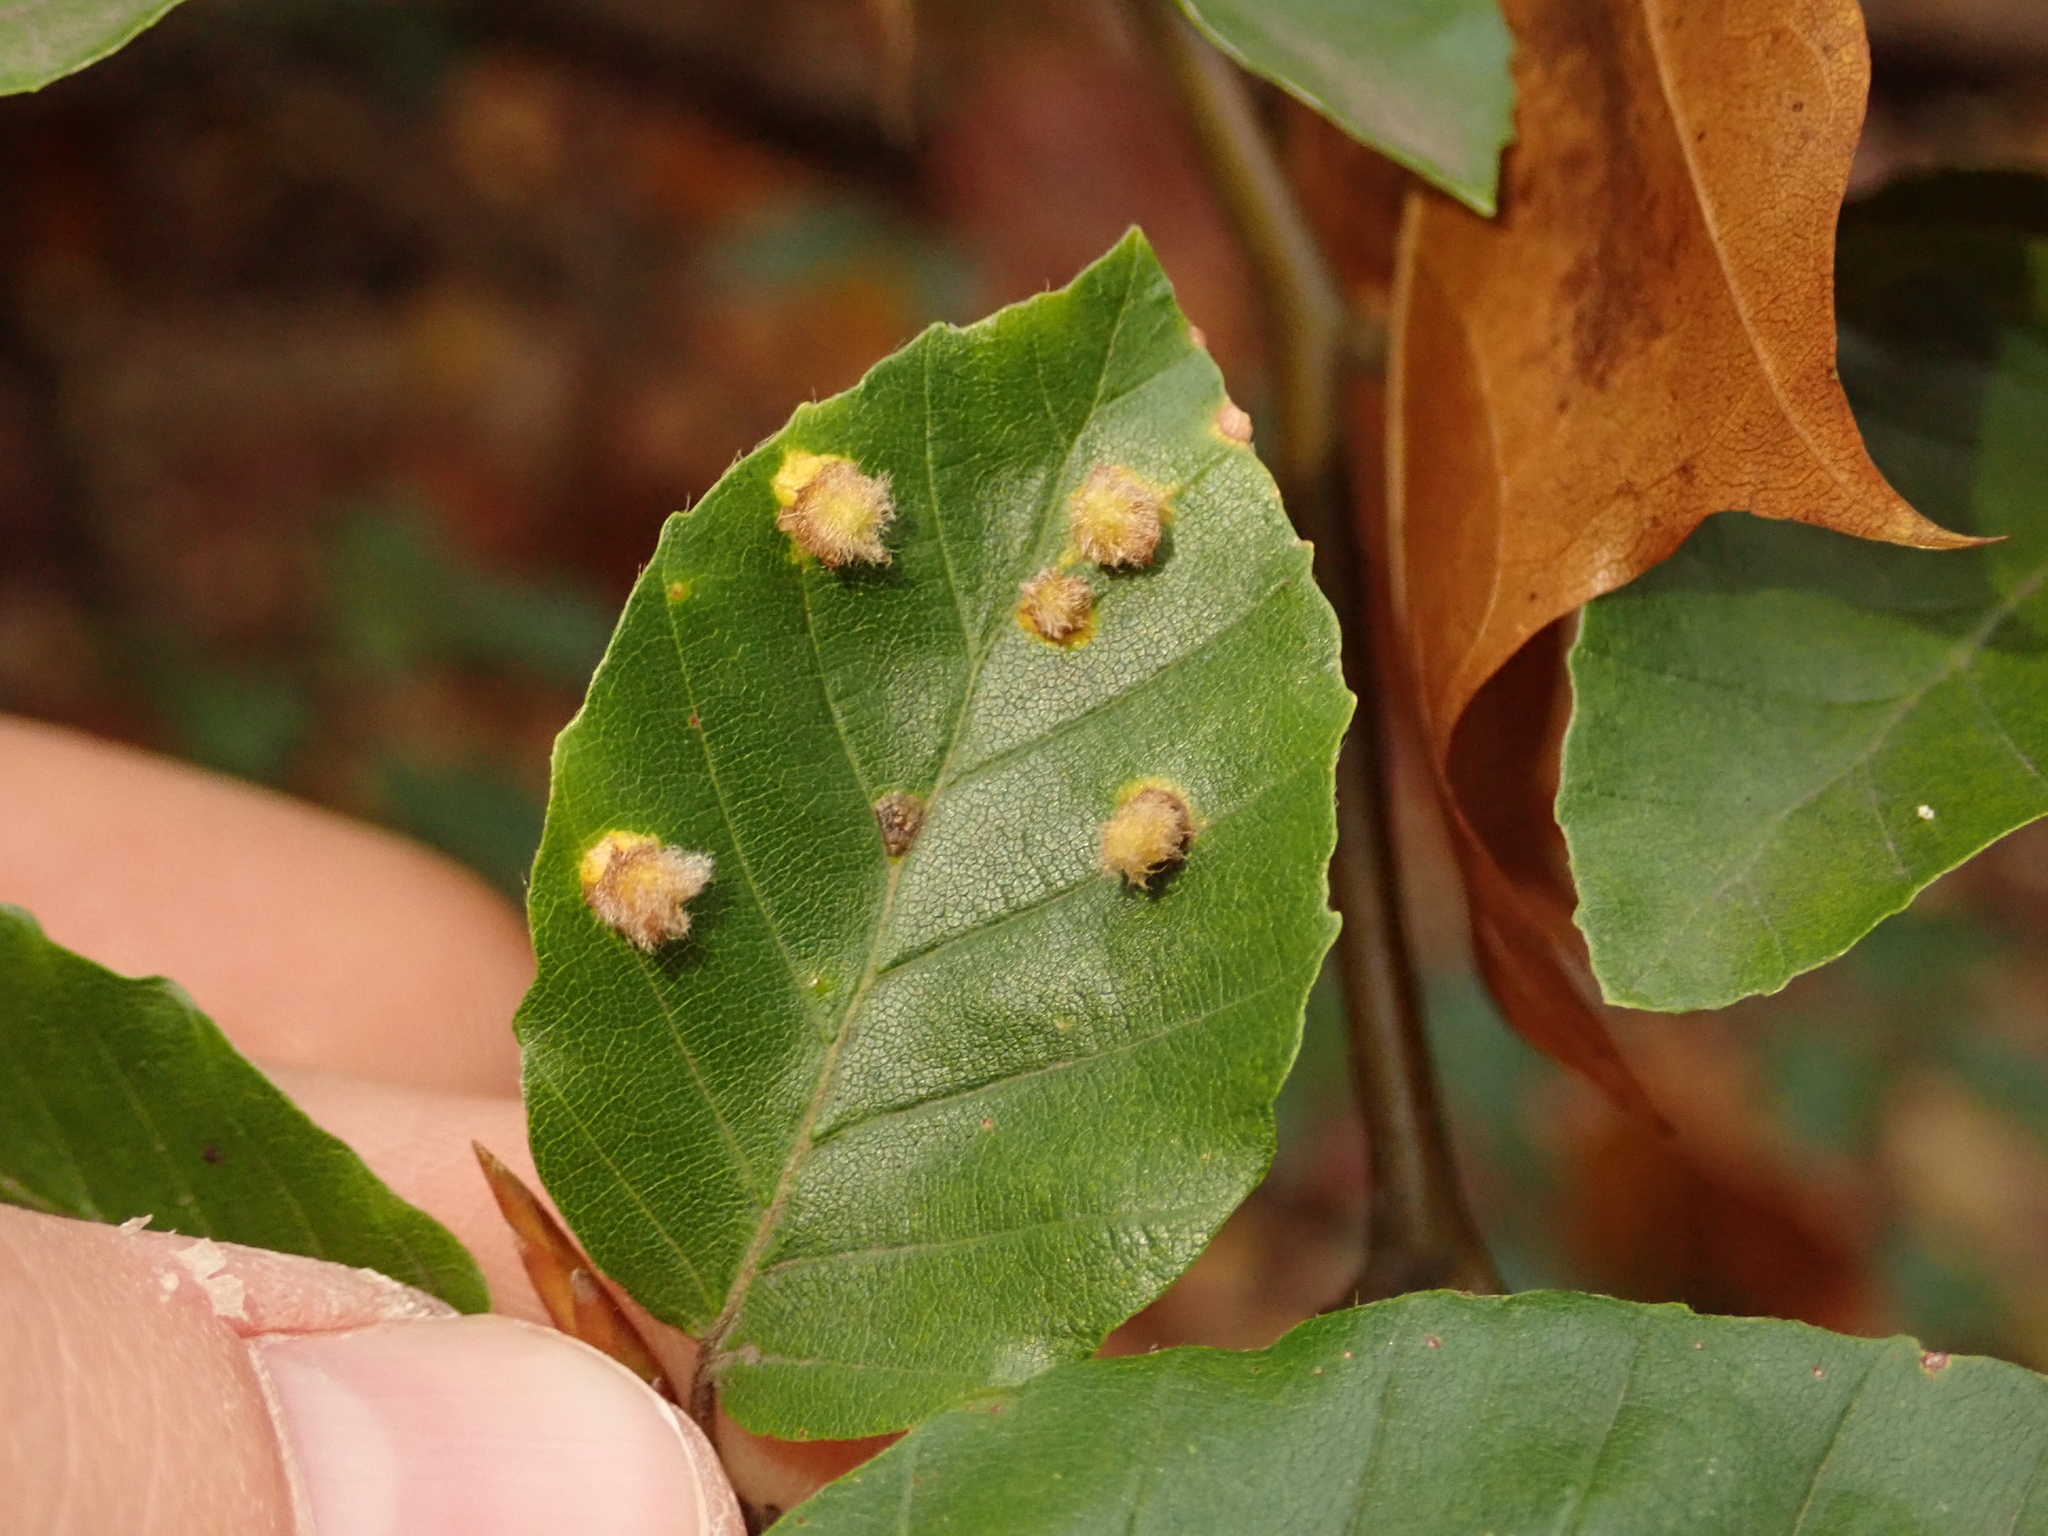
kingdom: Plantae
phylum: Tracheophyta
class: Magnoliopsida
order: Fagales
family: Fagaceae
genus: Fagus
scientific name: Fagus sylvatica
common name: Beech
